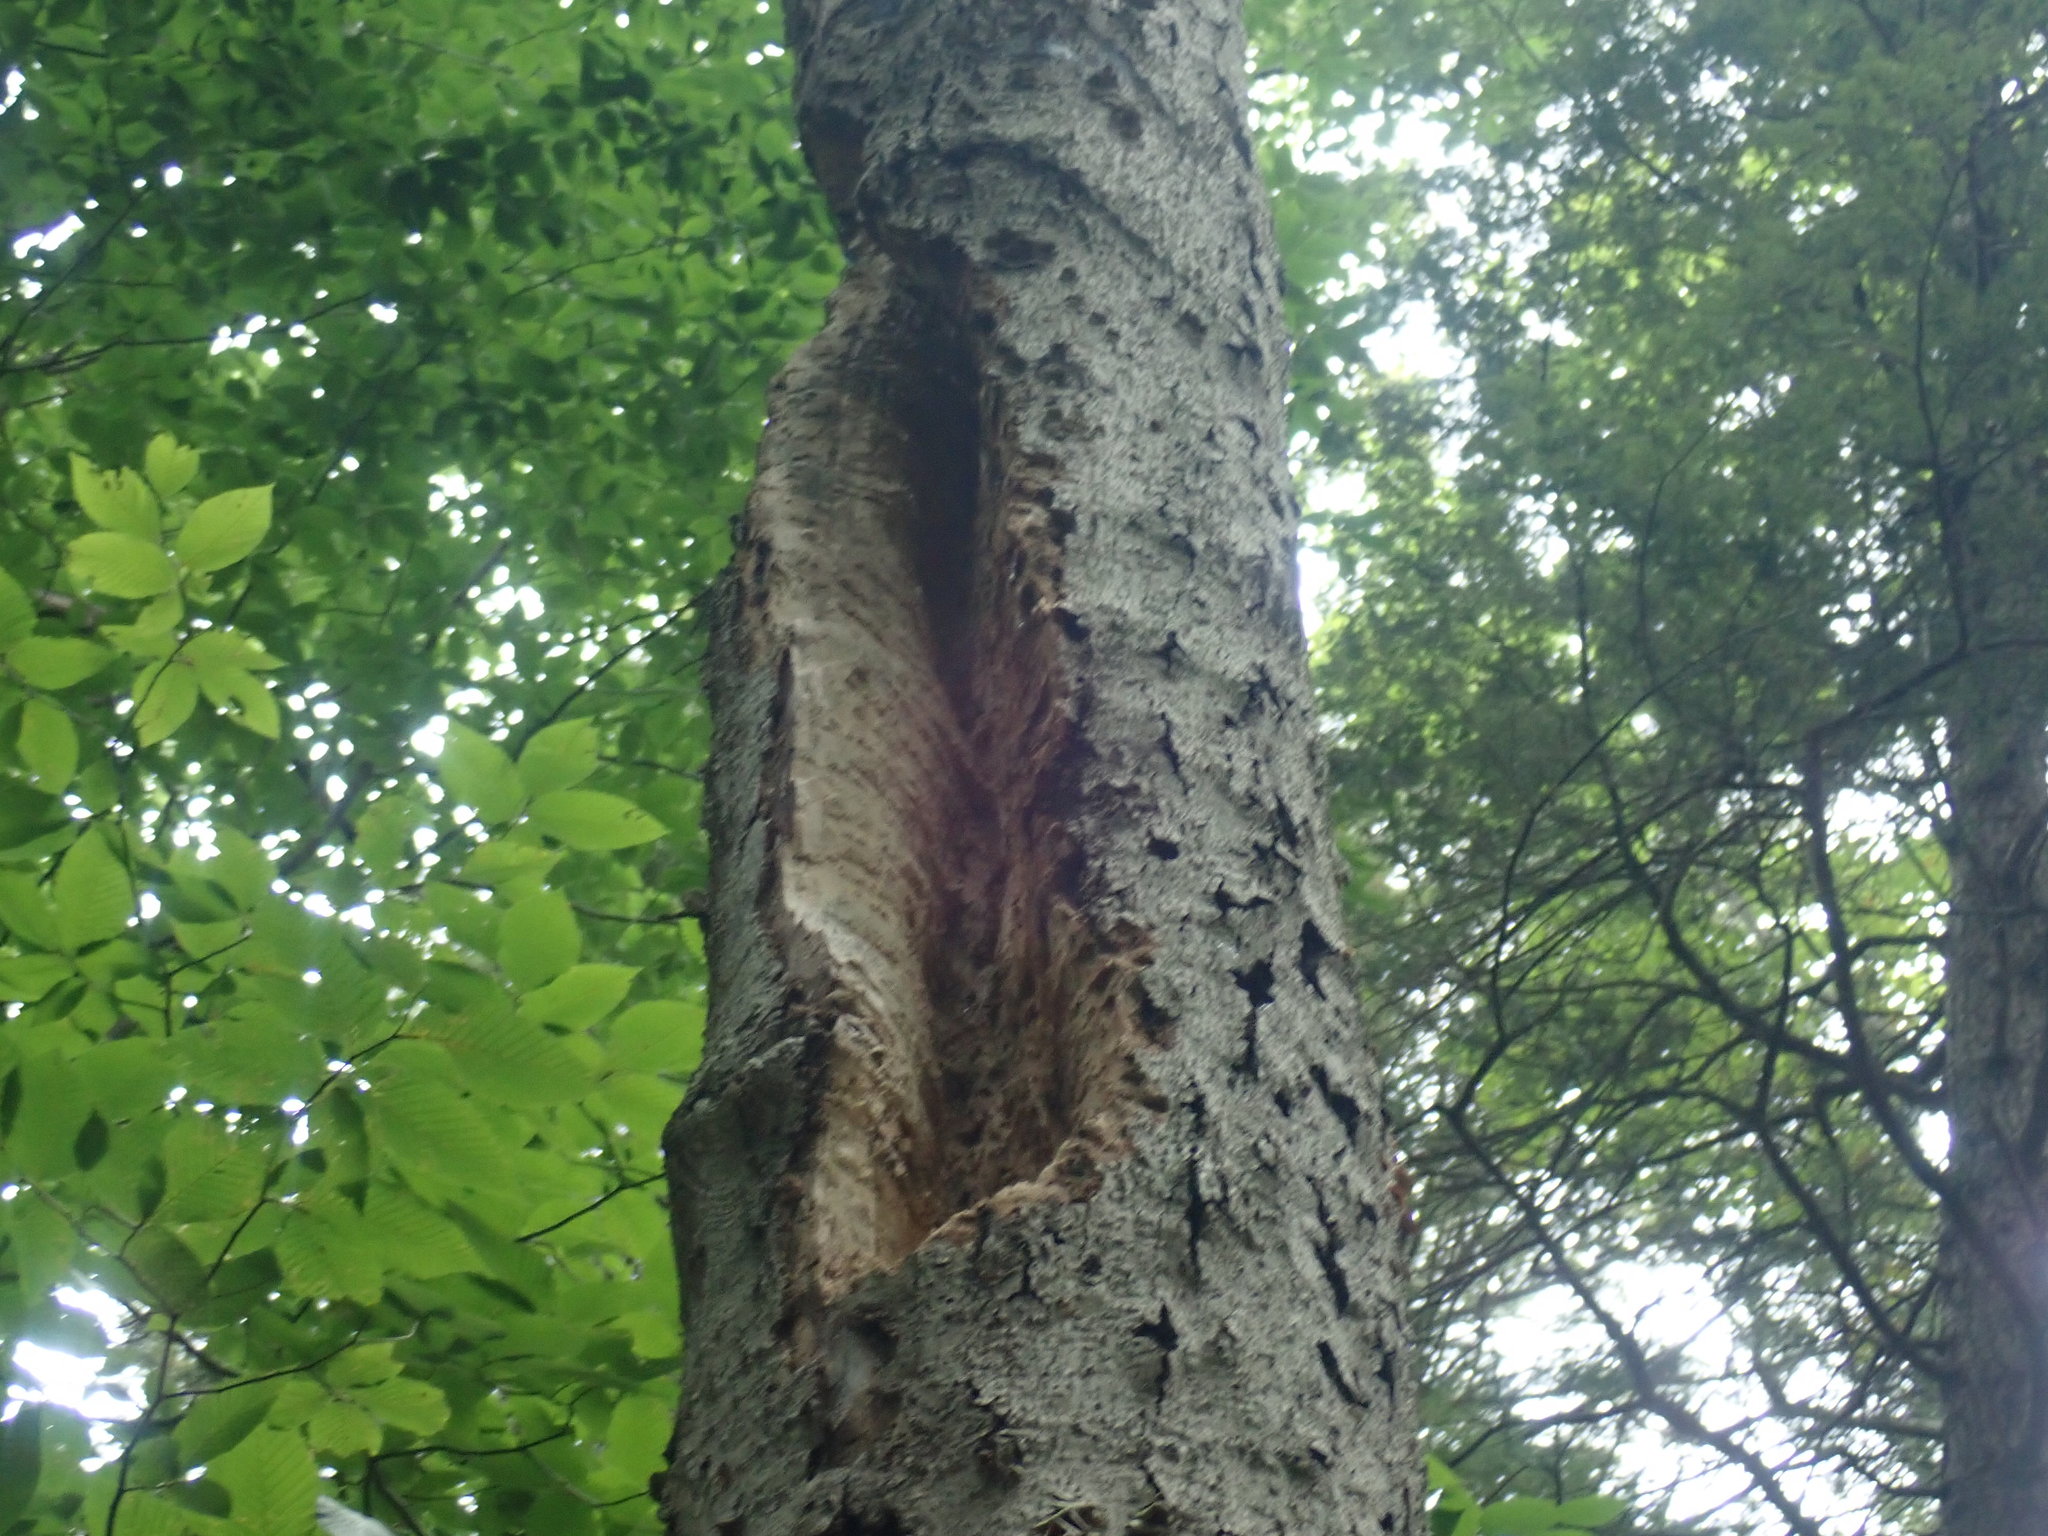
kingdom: Animalia
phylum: Chordata
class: Aves
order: Piciformes
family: Picidae
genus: Dryocopus
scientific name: Dryocopus pileatus
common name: Pileated woodpecker
